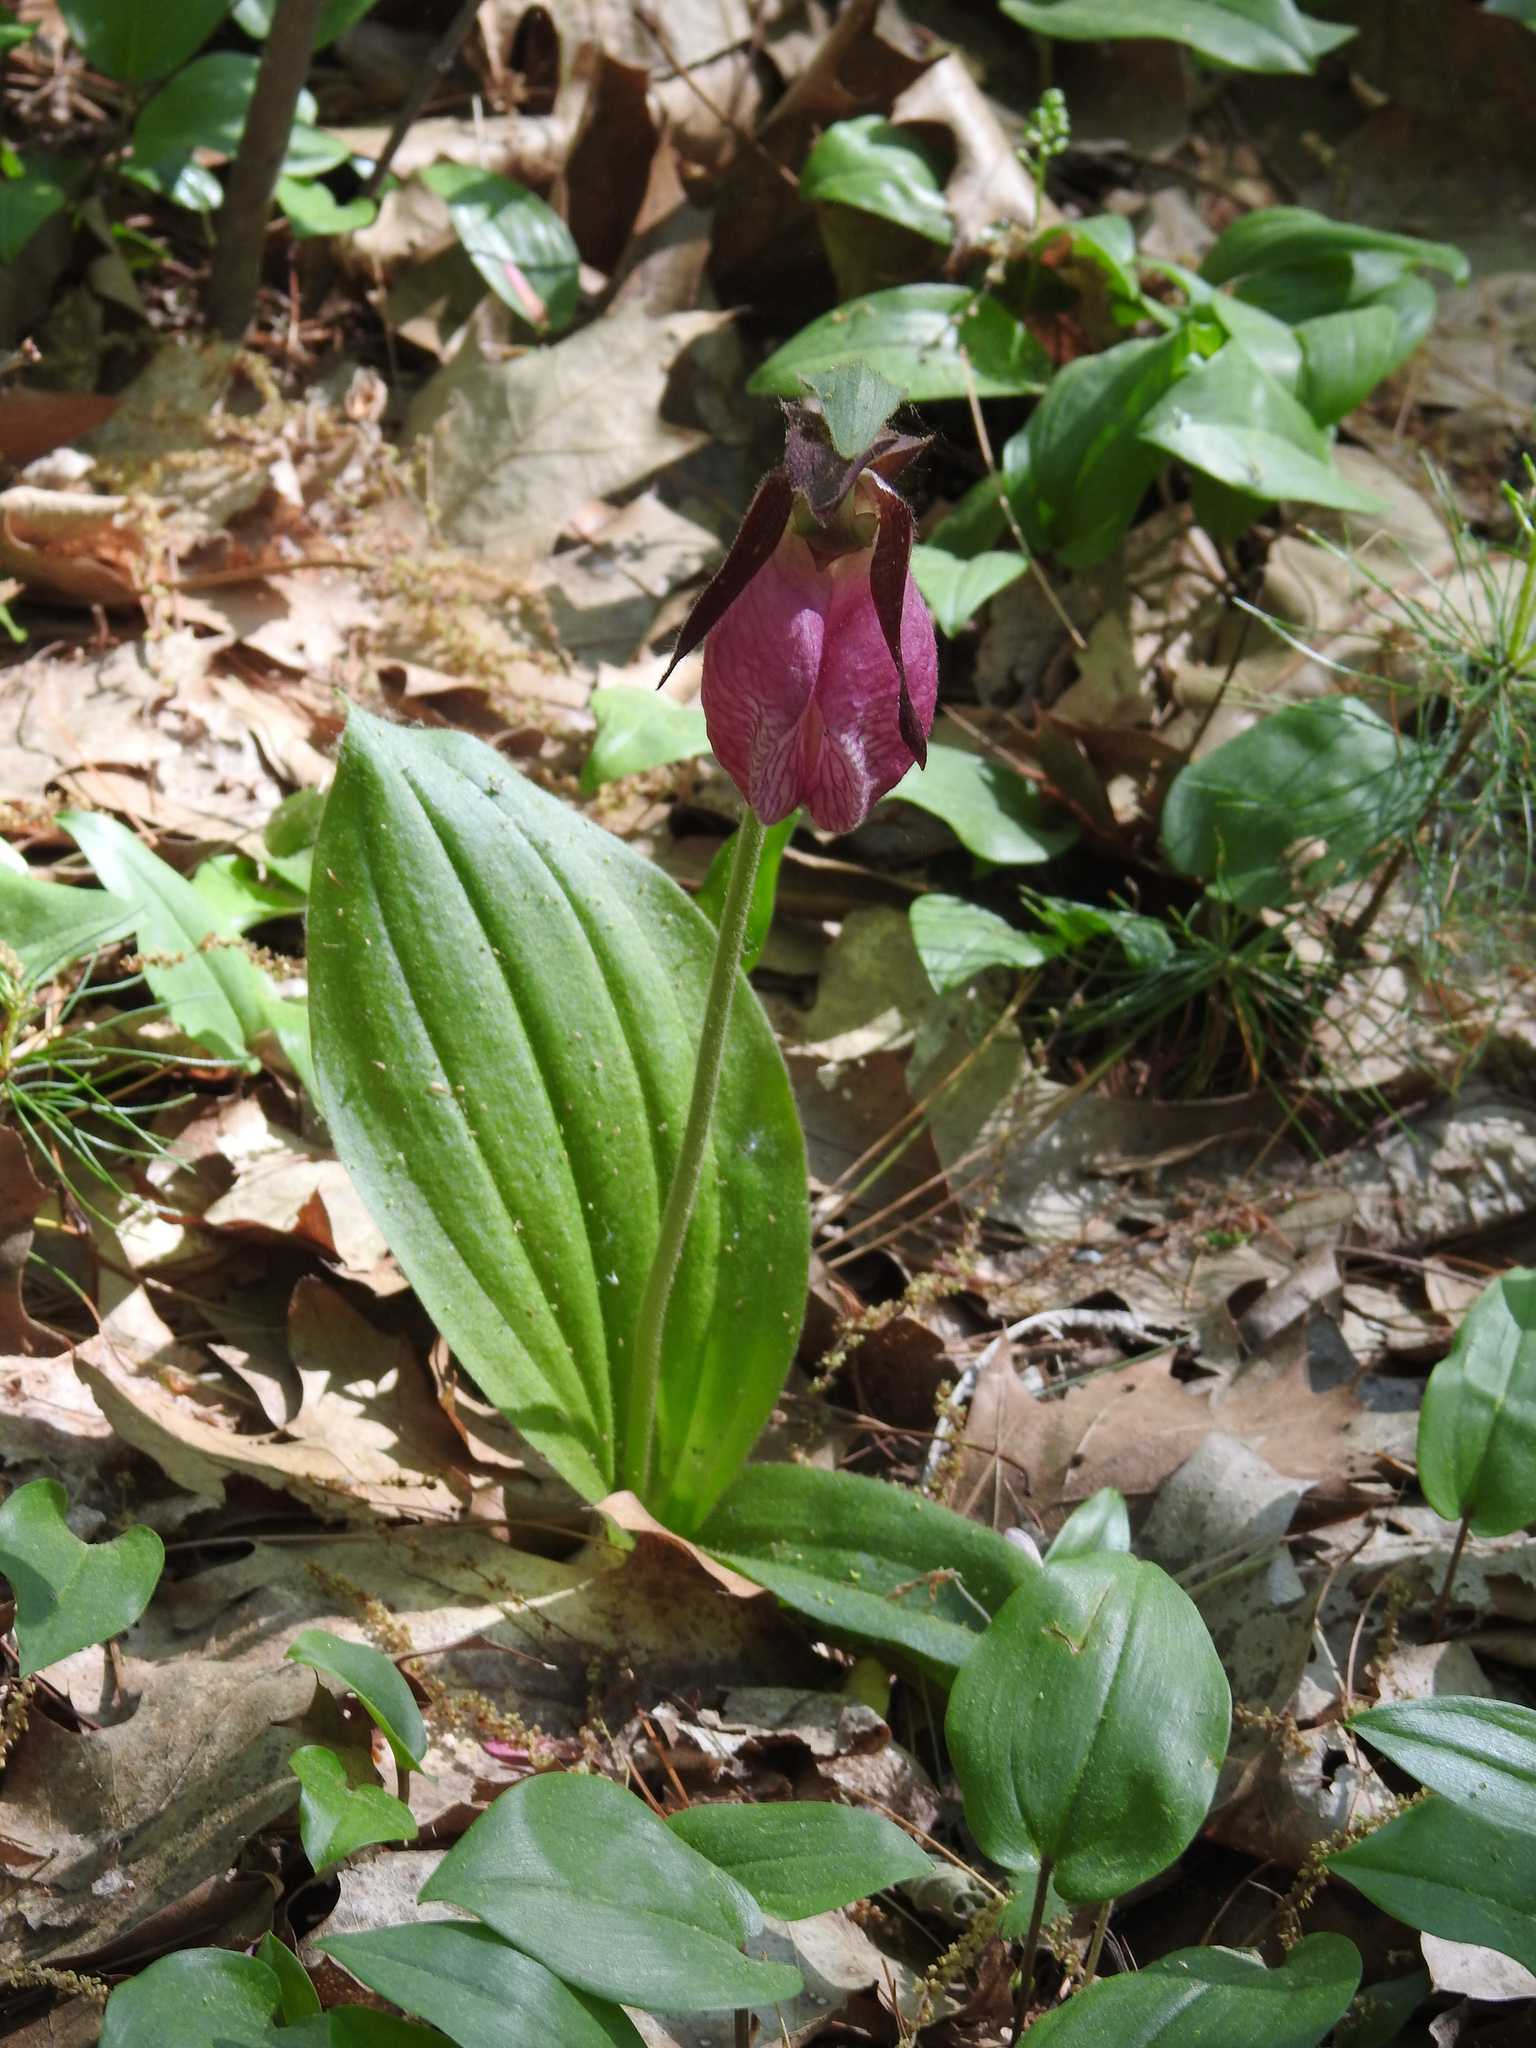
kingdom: Plantae
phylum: Tracheophyta
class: Liliopsida
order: Asparagales
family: Orchidaceae
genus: Cypripedium
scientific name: Cypripedium acaule
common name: Pink lady's-slipper
